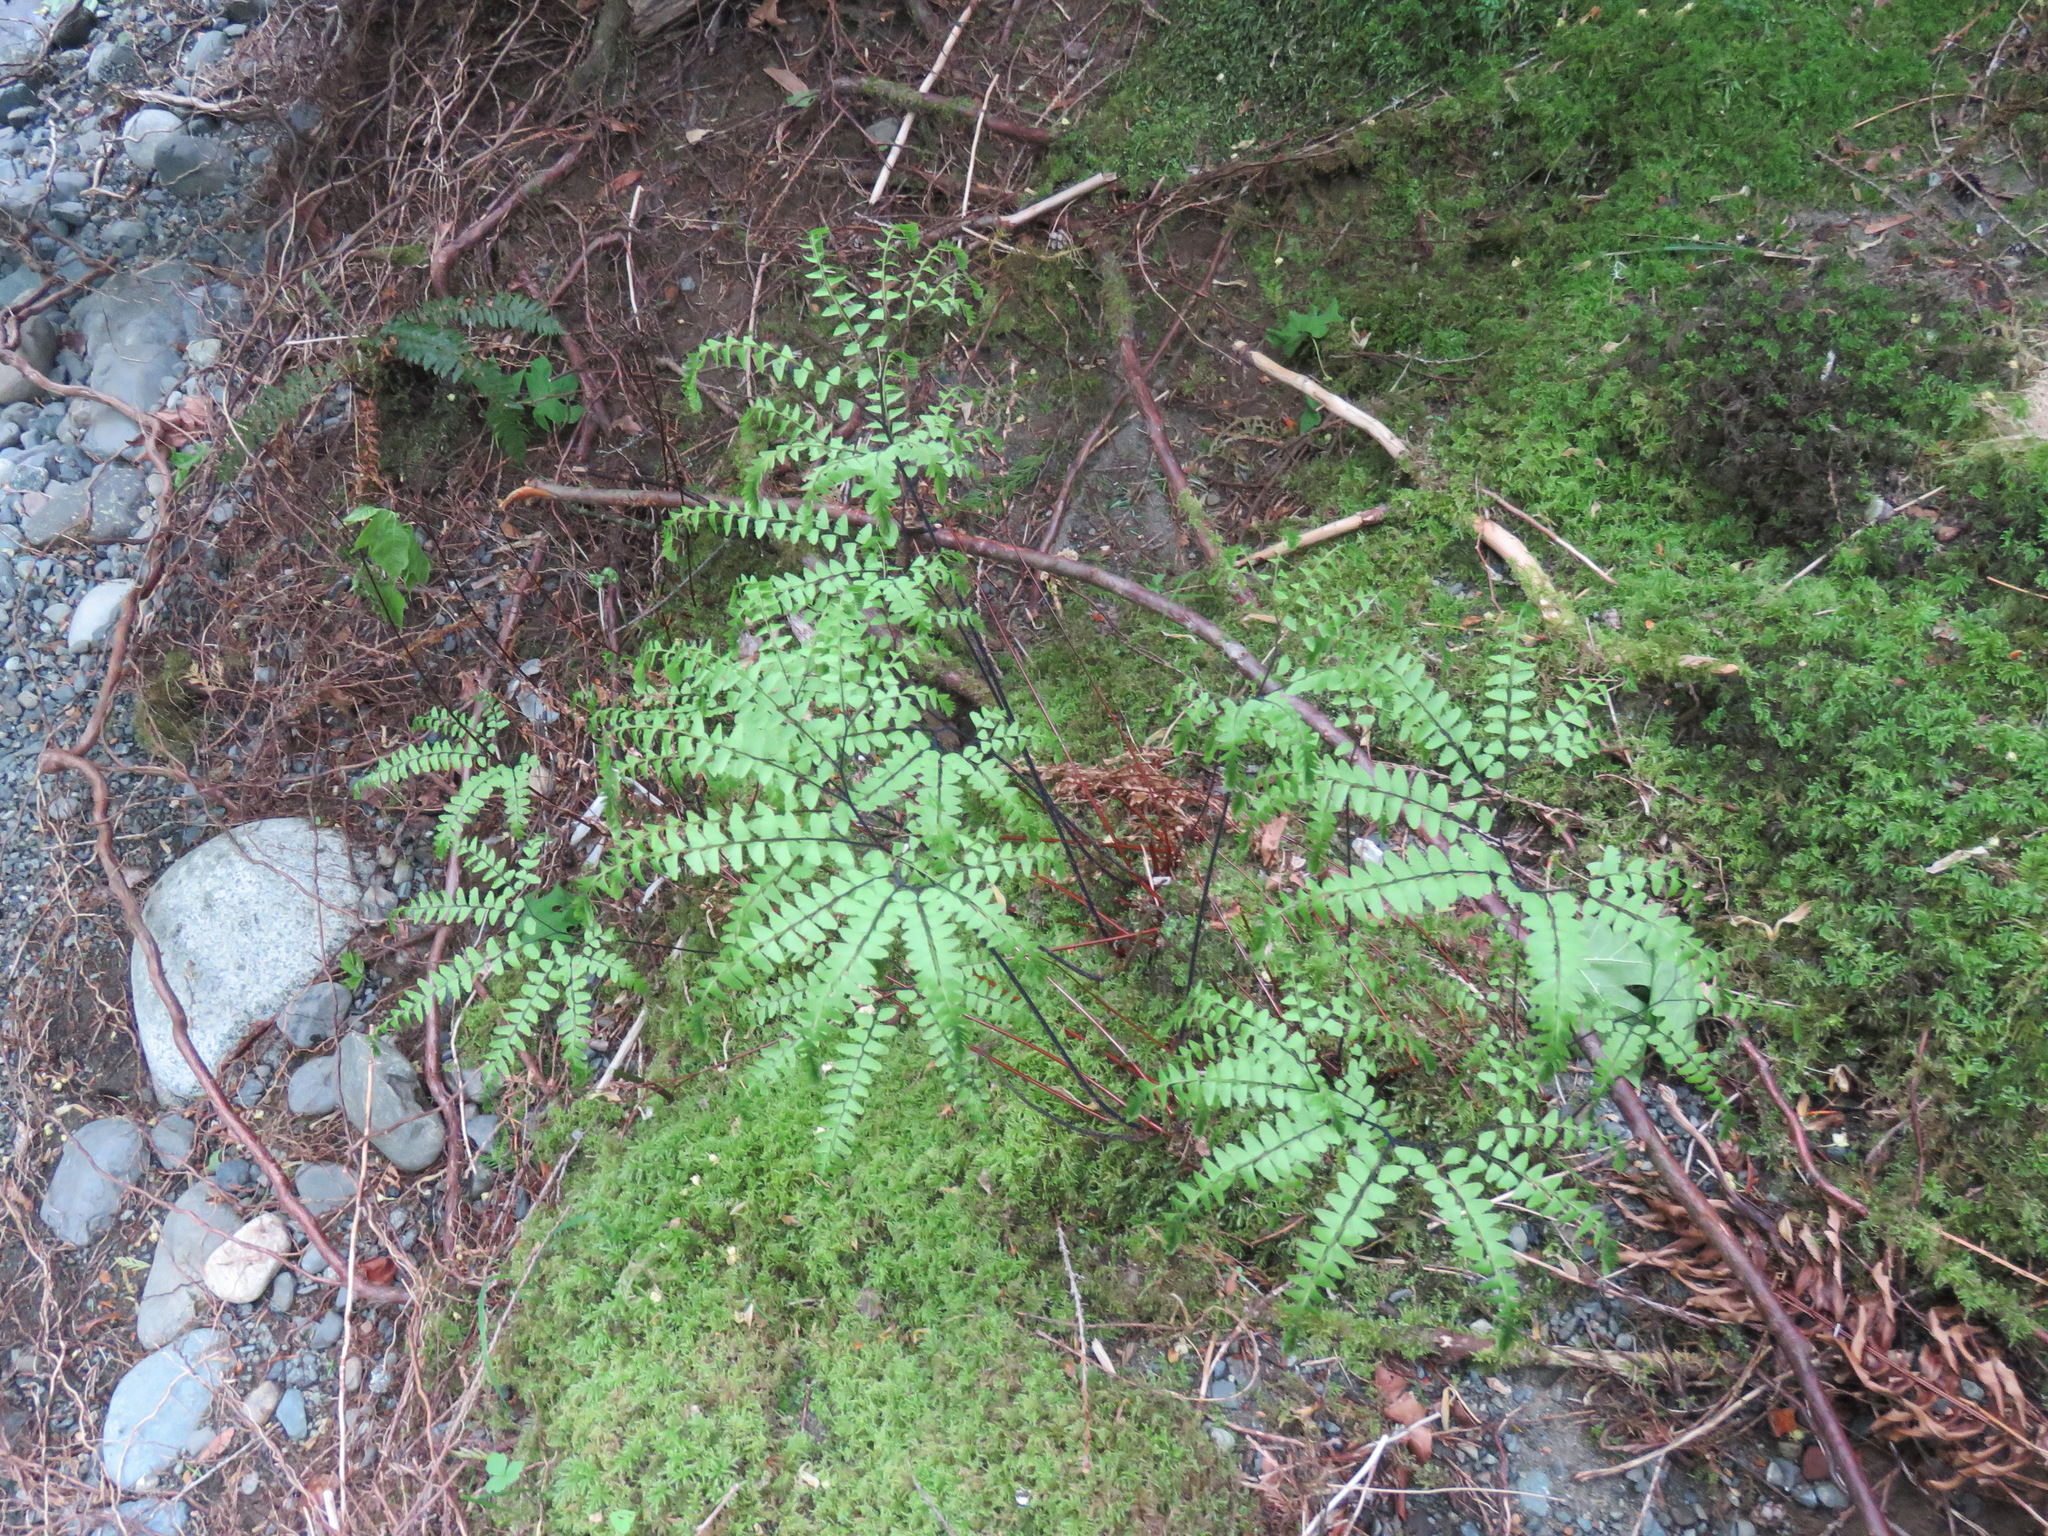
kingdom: Plantae
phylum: Tracheophyta
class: Polypodiopsida
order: Polypodiales
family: Pteridaceae
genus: Adiantum
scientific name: Adiantum aleuticum
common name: Aleutian maidenhair fern
